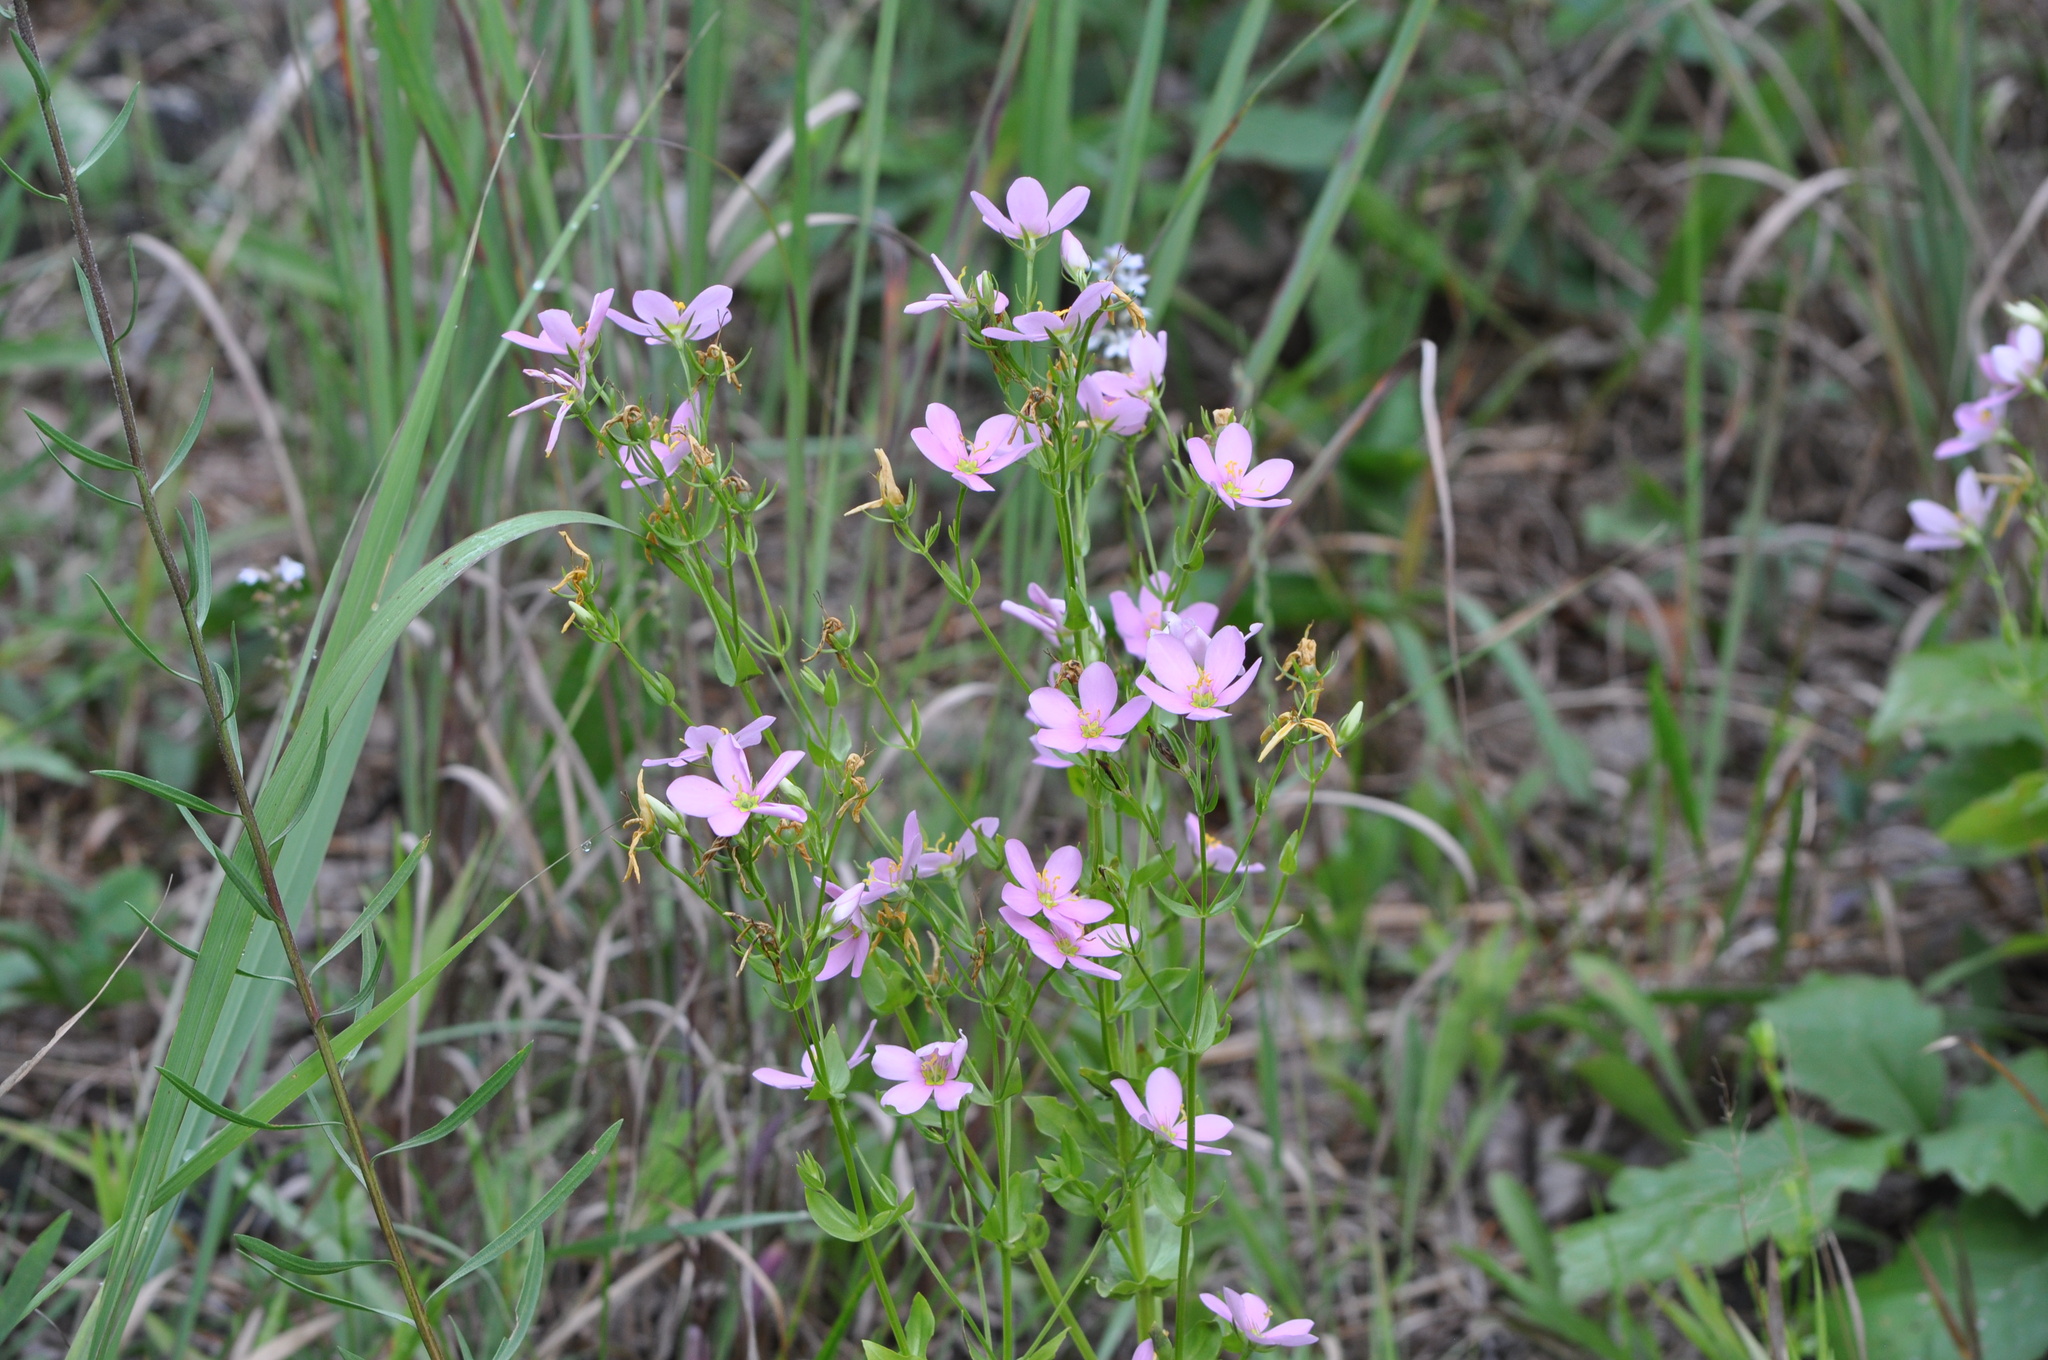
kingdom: Plantae
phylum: Tracheophyta
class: Magnoliopsida
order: Gentianales
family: Gentianaceae
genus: Sabatia
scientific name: Sabatia angularis
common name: Rose-pink
